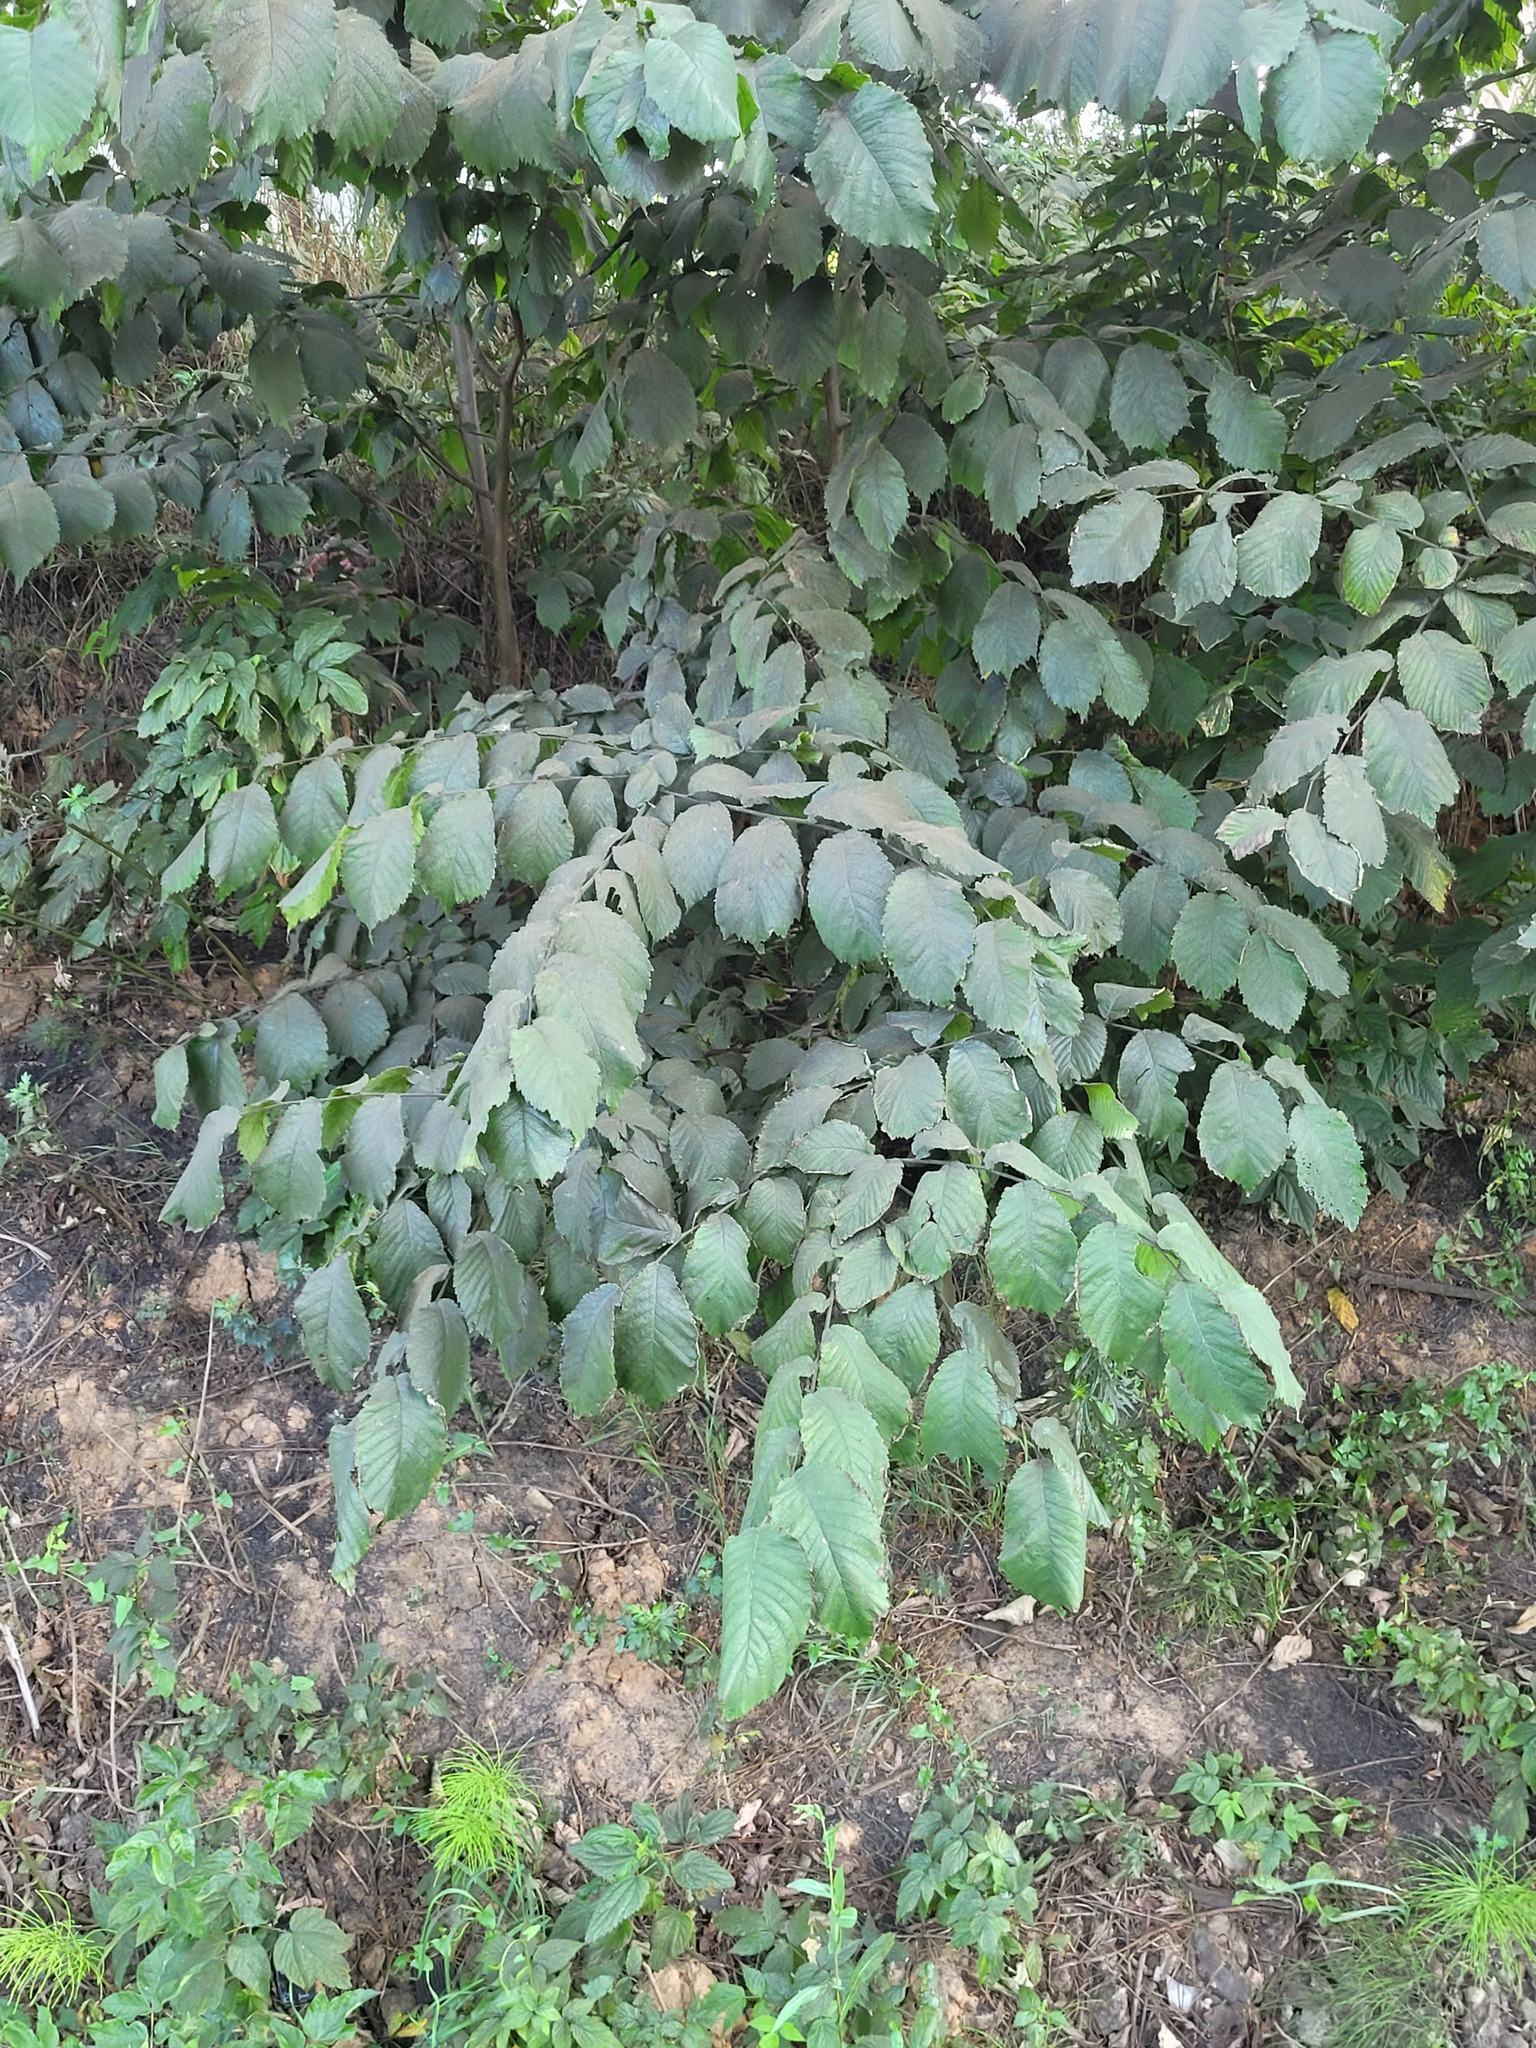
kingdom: Plantae
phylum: Tracheophyta
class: Magnoliopsida
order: Rosales
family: Ulmaceae
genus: Ulmus
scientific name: Ulmus glabra
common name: Wych elm
